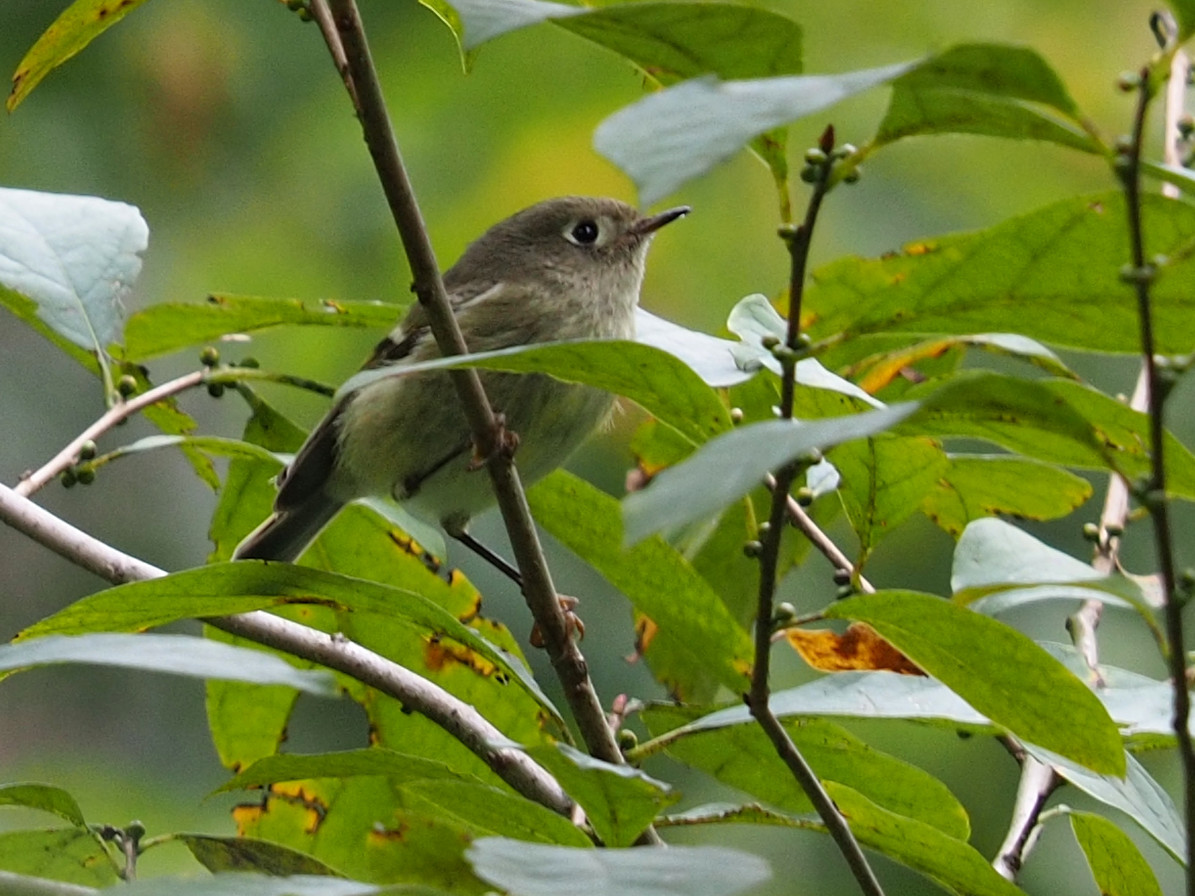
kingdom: Animalia
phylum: Chordata
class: Aves
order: Passeriformes
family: Regulidae
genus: Regulus
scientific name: Regulus calendula
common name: Ruby-crowned kinglet
